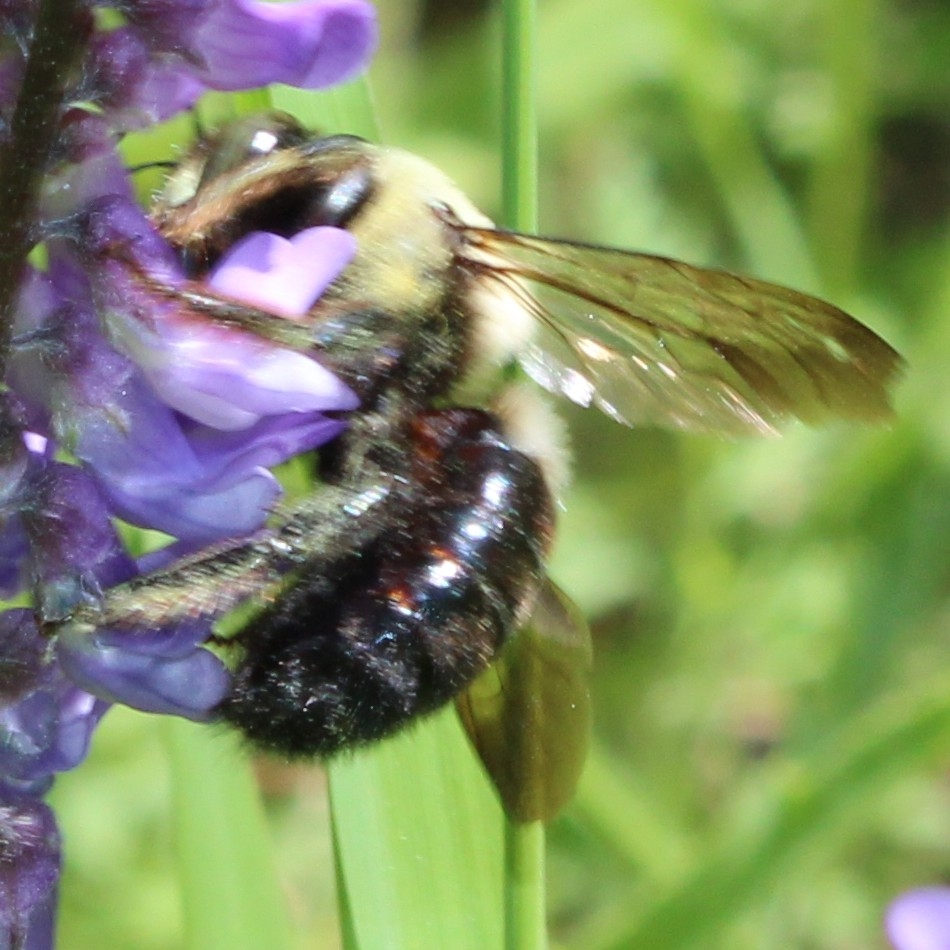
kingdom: Animalia
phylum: Arthropoda
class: Insecta
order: Hymenoptera
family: Apidae
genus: Xylocopa
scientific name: Xylocopa virginica
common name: Carpenter bee
